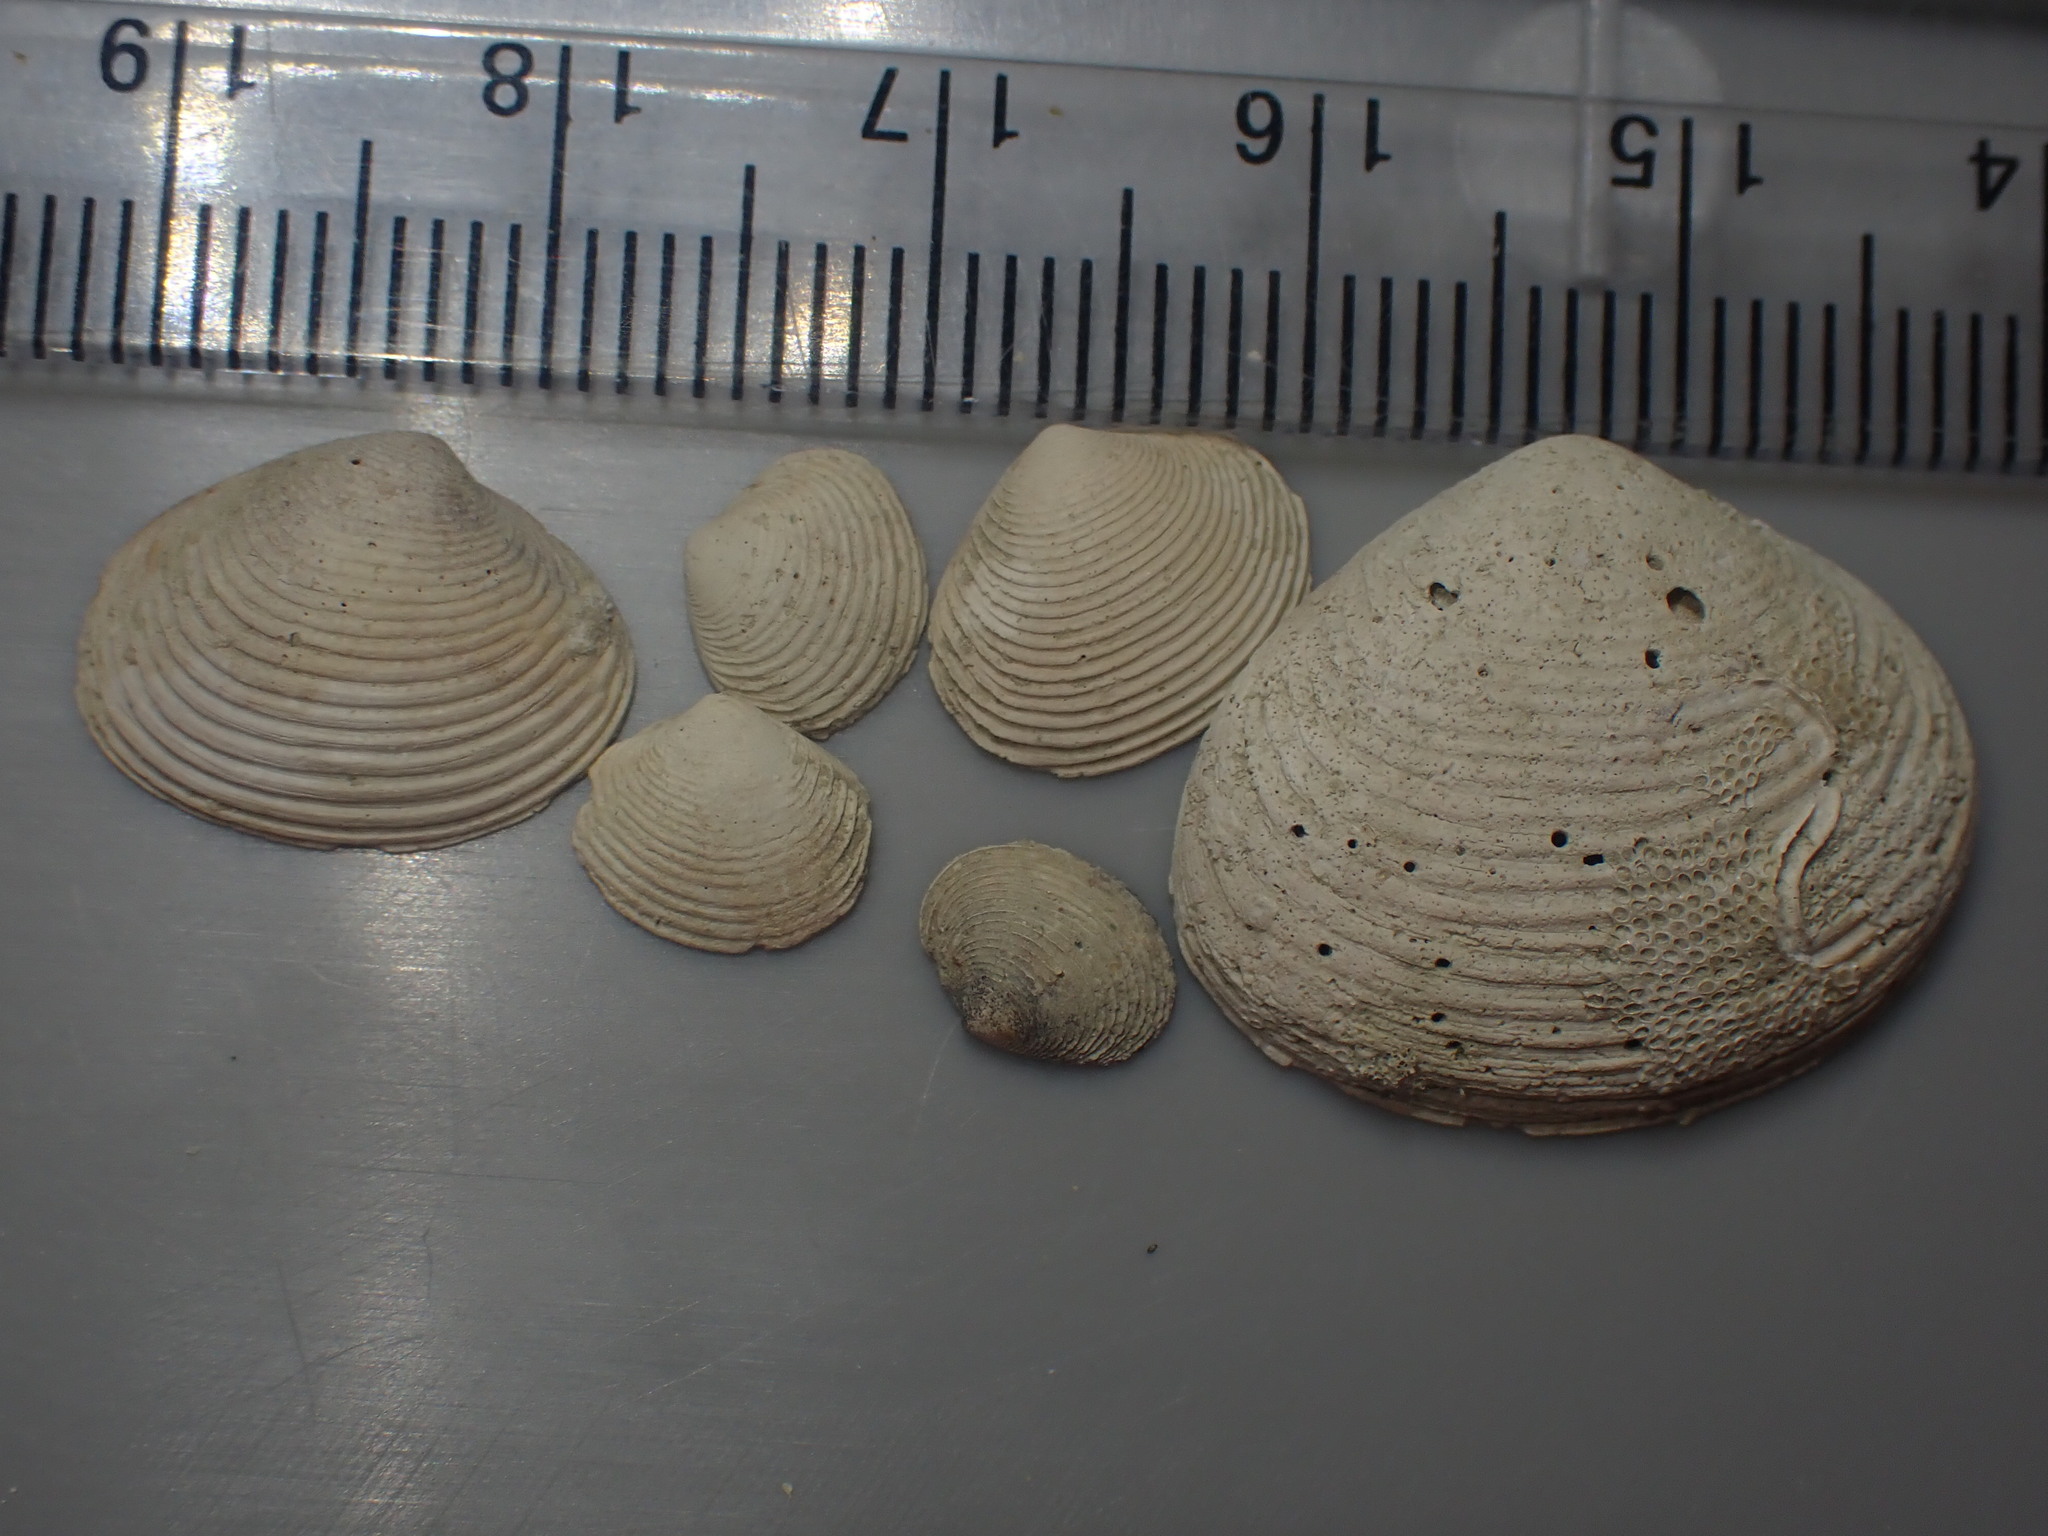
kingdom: Animalia
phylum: Mollusca
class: Bivalvia
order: Venerida
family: Veneridae
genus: Tawera
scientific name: Tawera spissa
